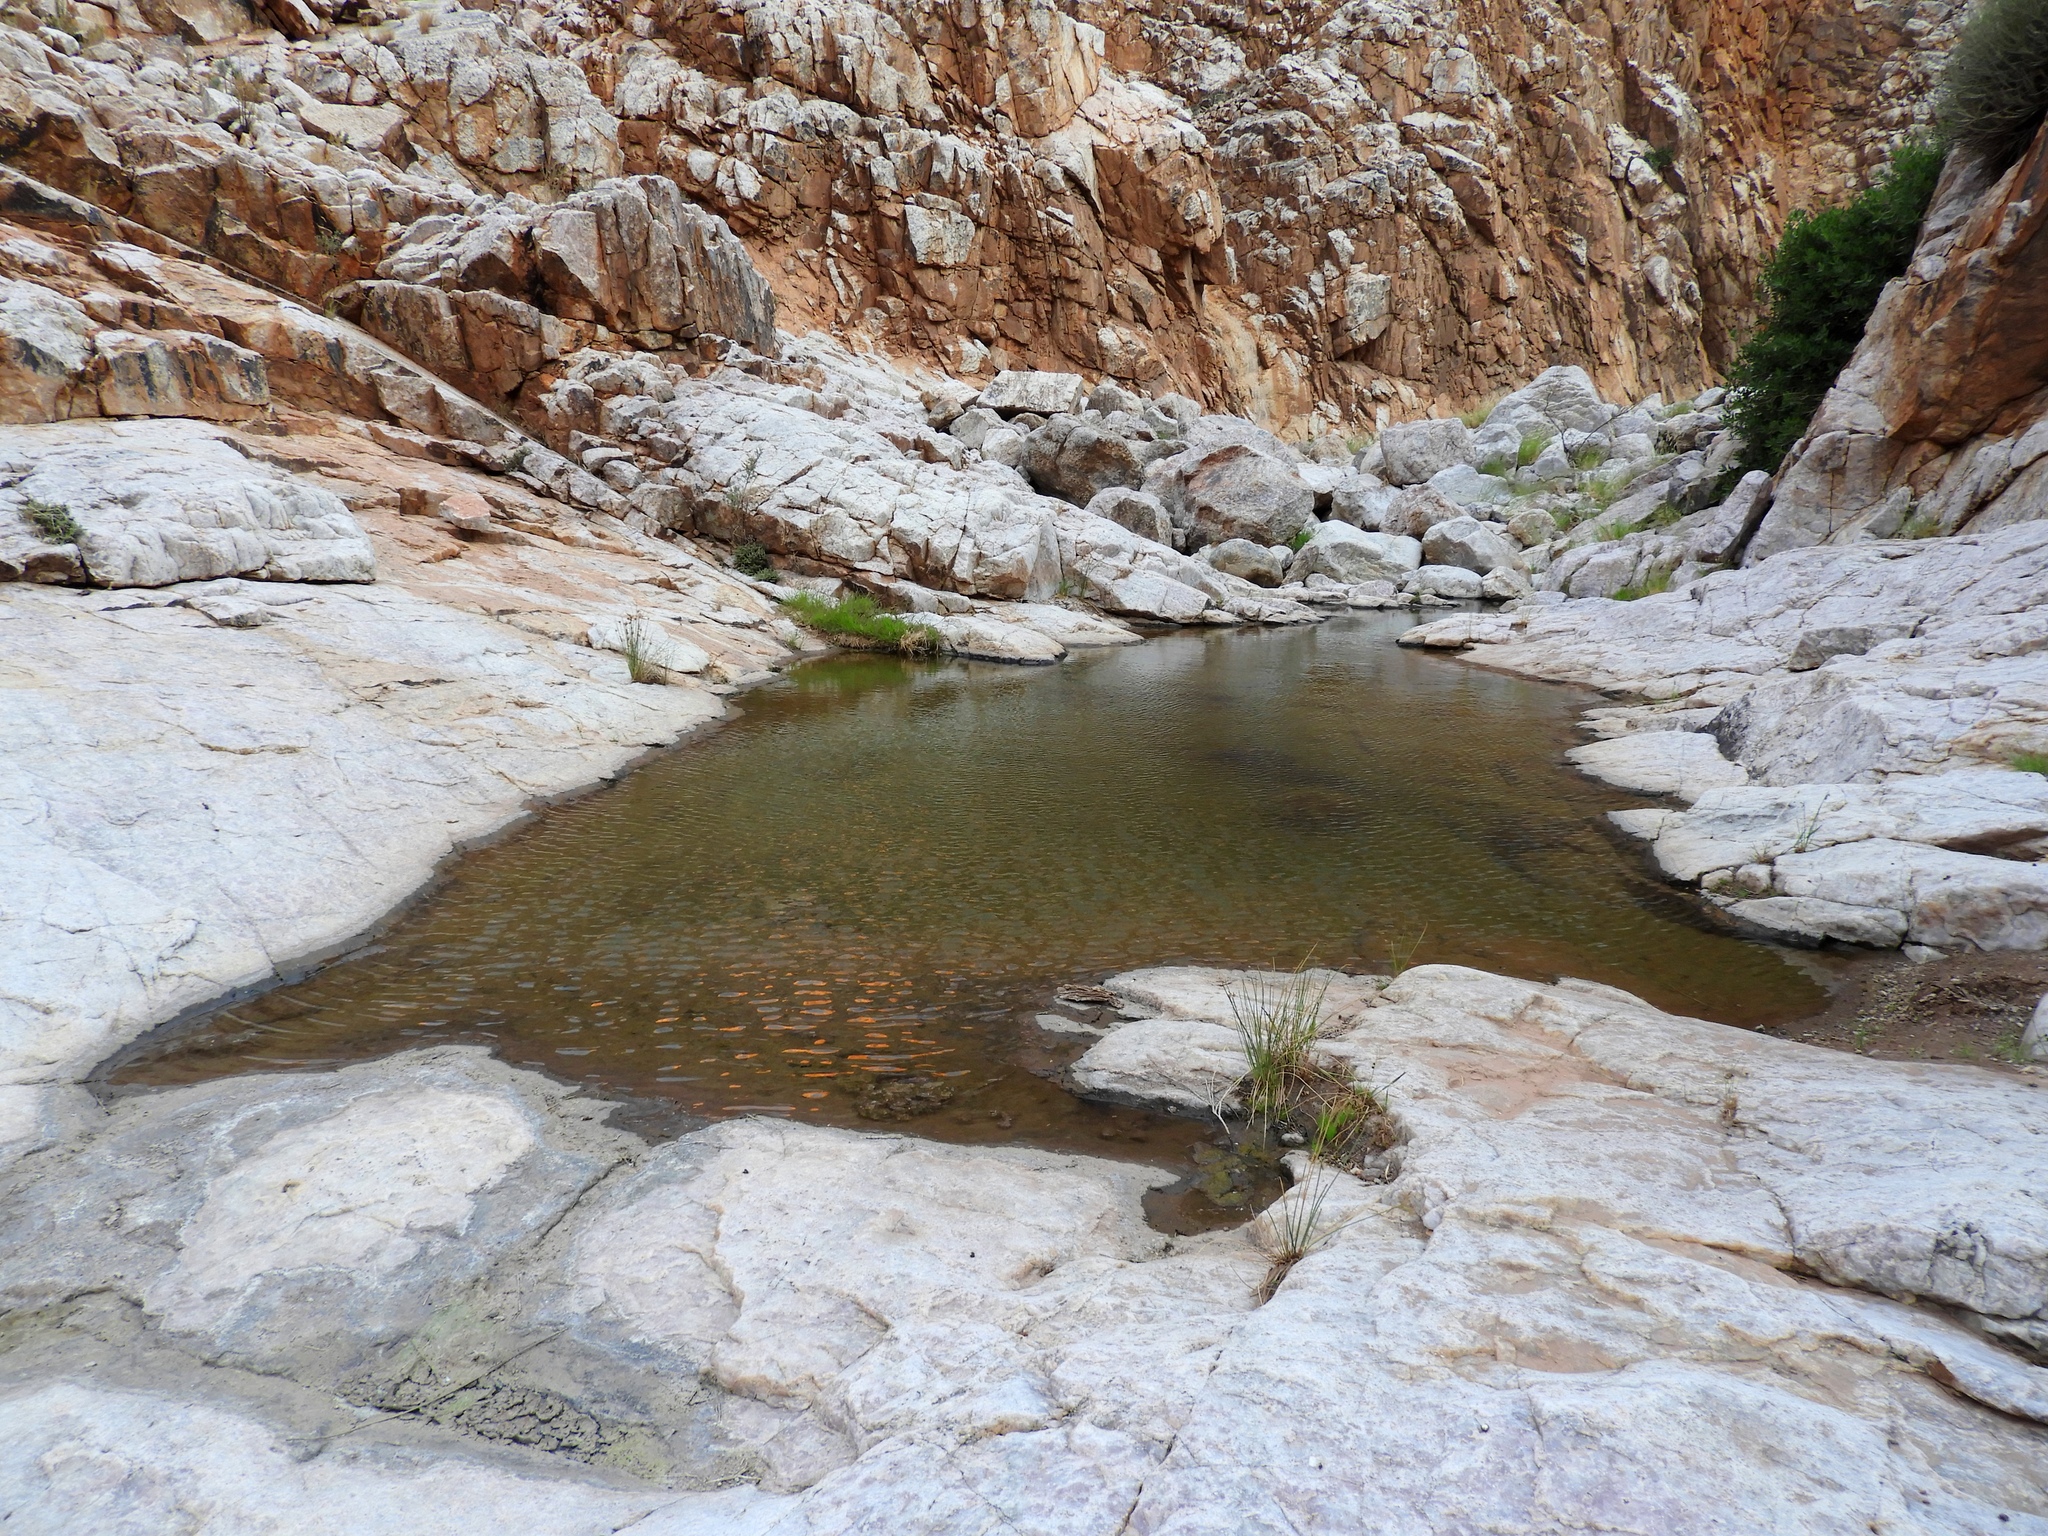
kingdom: Animalia
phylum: Chordata
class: Amphibia
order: Anura
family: Microhylidae
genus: Phrynomantis
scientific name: Phrynomantis annectens
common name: Marbled rubber frog
